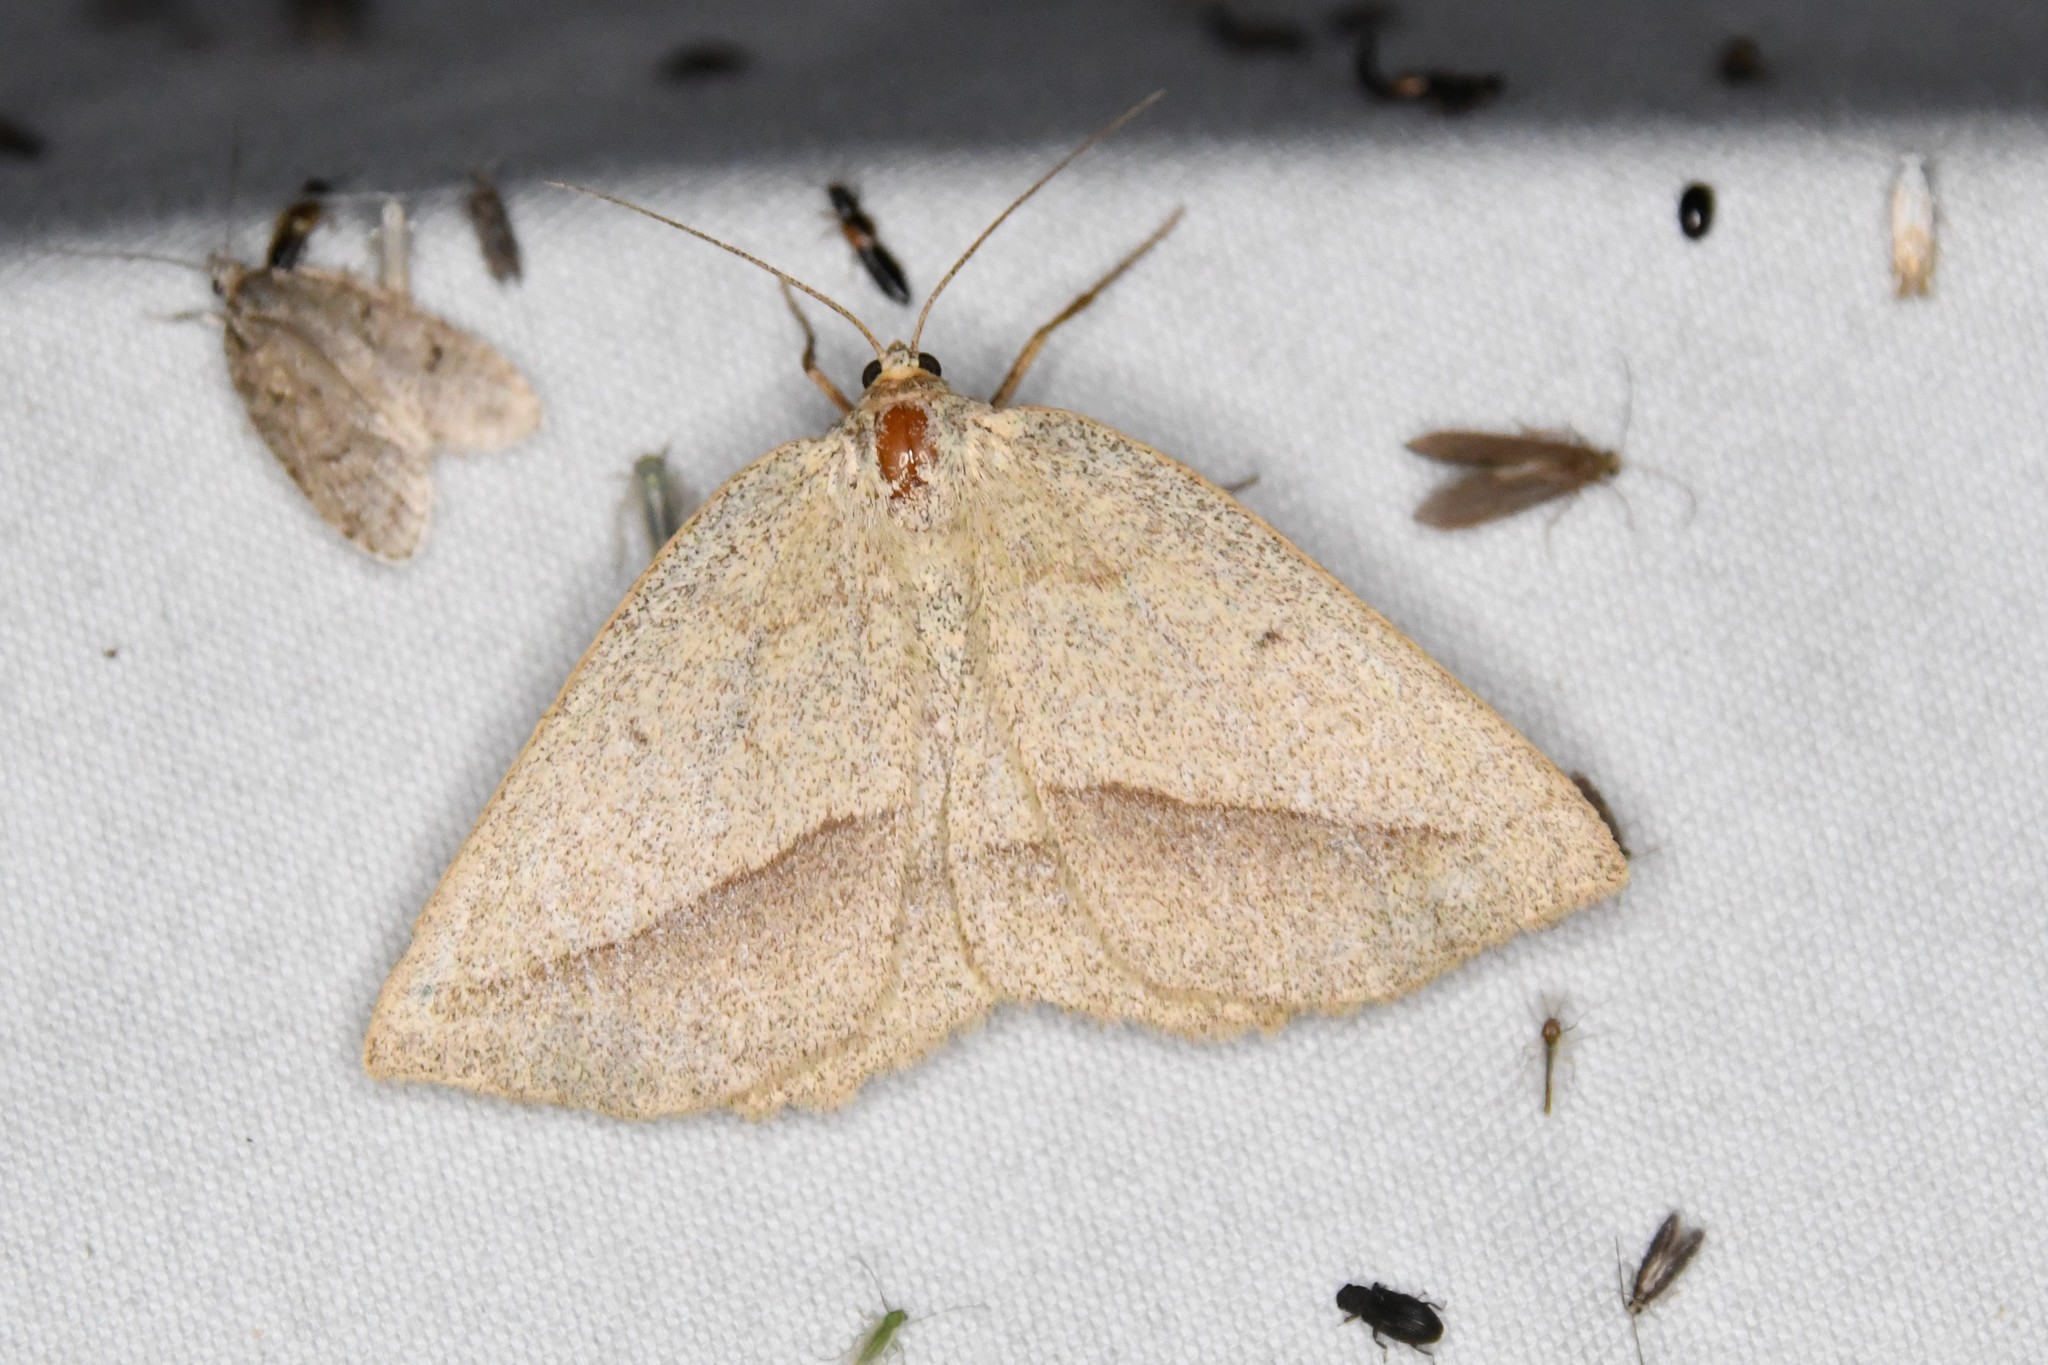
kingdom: Animalia
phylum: Arthropoda
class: Insecta
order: Lepidoptera
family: Geometridae
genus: Euchlaena
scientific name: Euchlaena irraria
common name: Least-marked euchlaena
